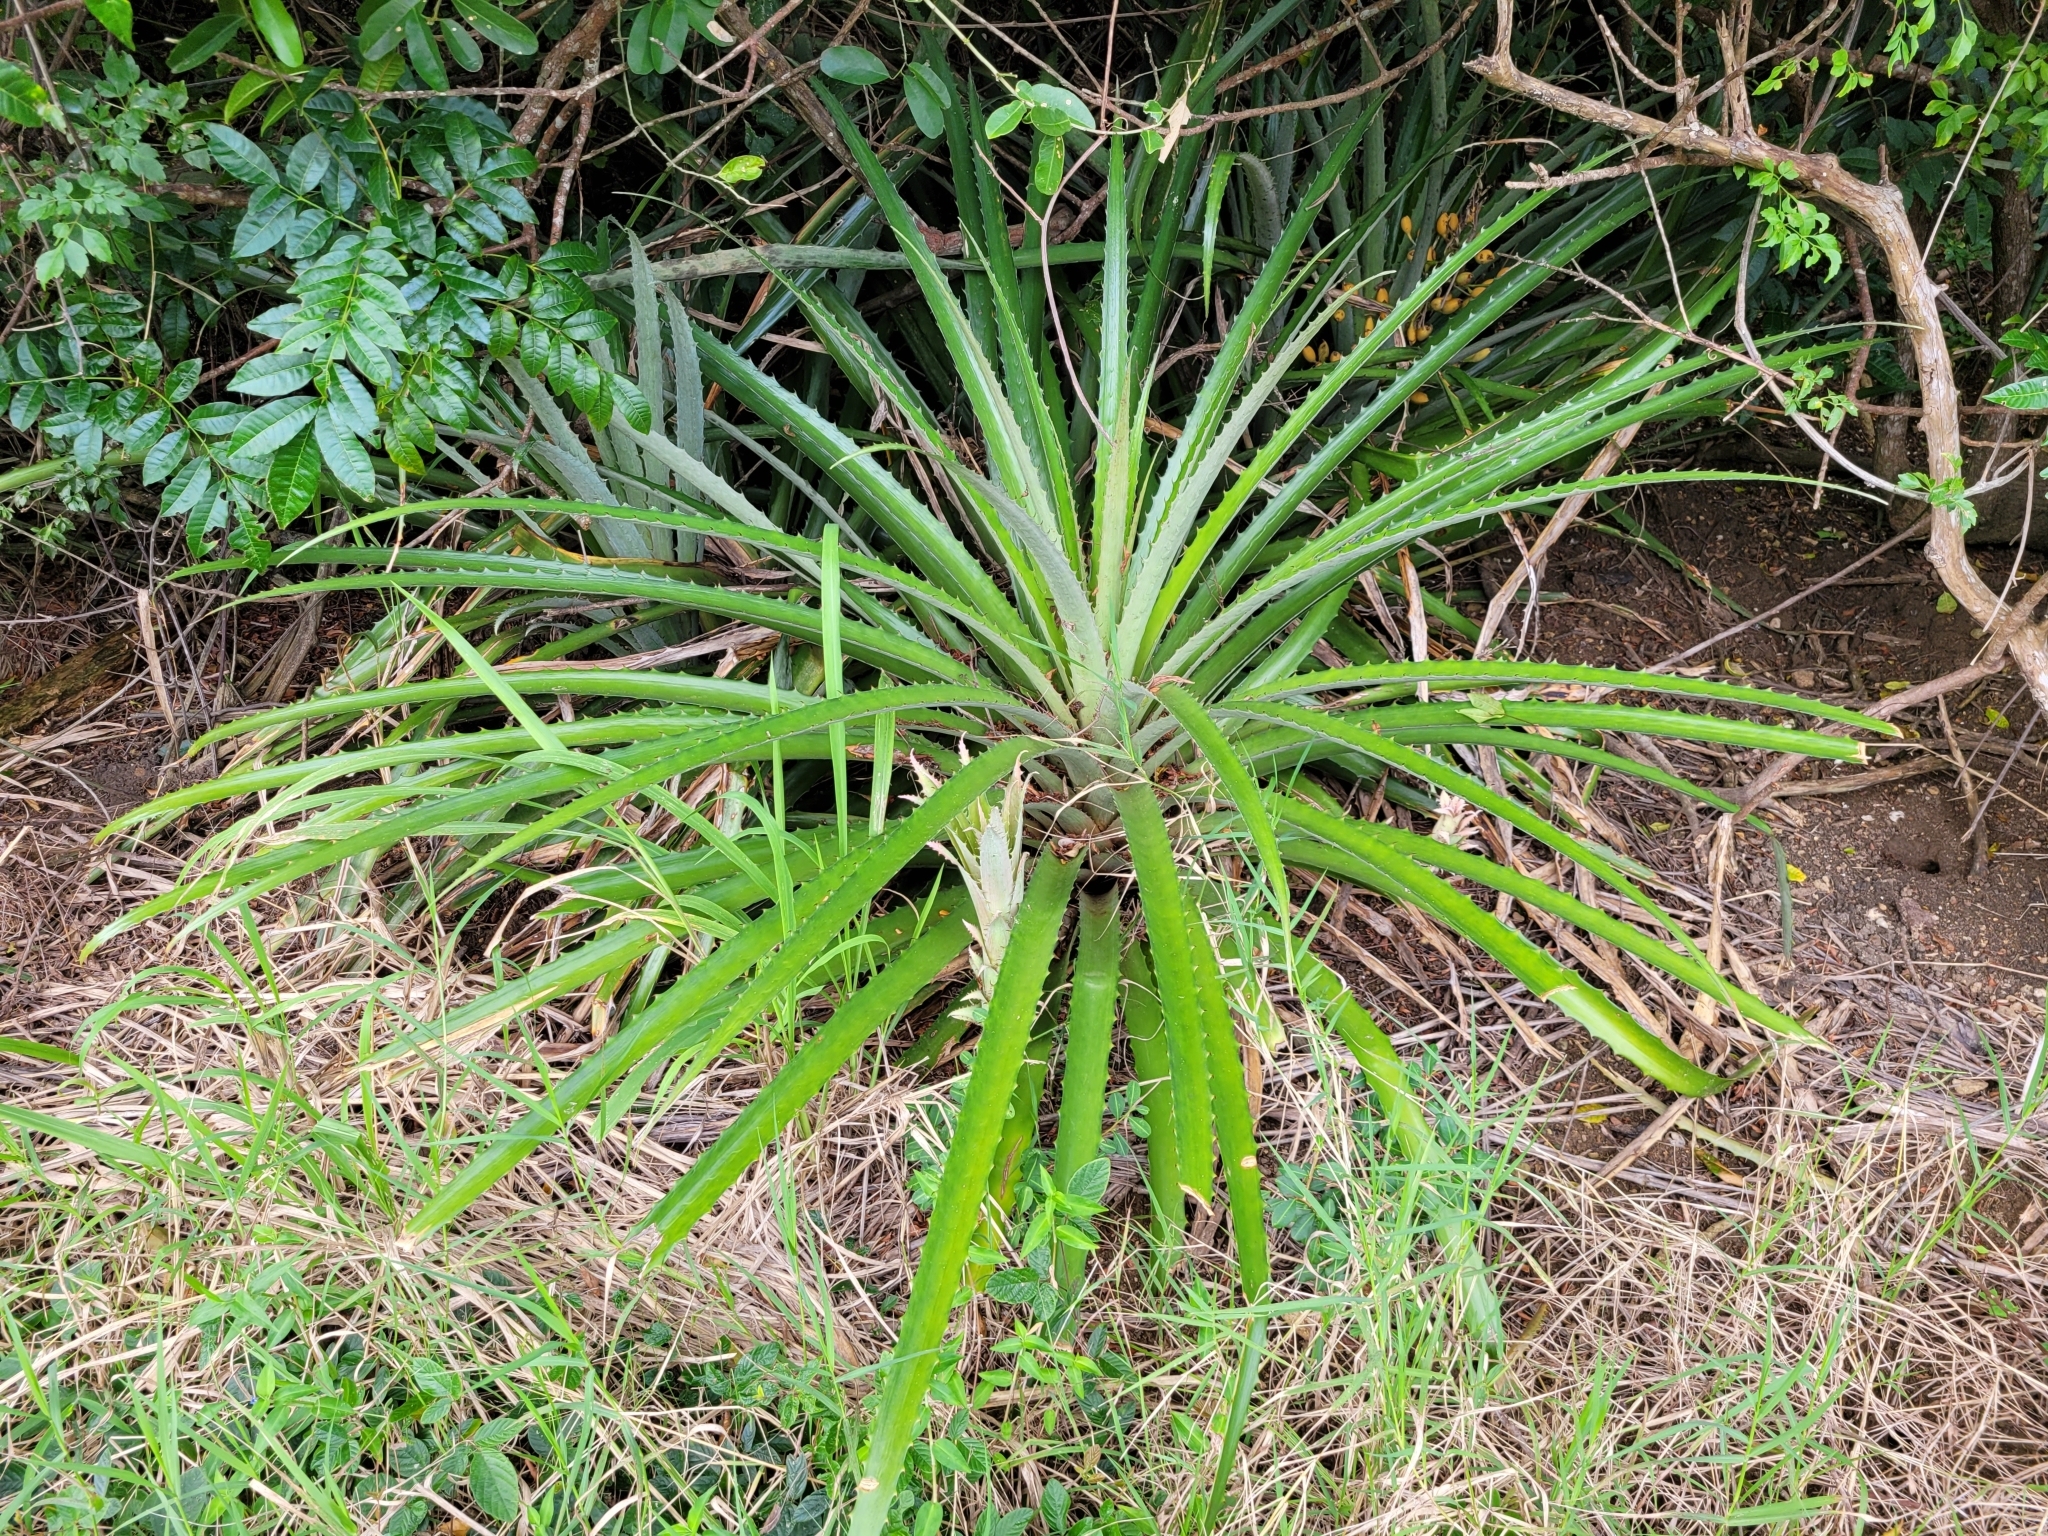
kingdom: Plantae
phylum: Tracheophyta
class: Liliopsida
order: Poales
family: Bromeliaceae
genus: Bromelia
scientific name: Bromelia pinguin
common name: Pinguin
